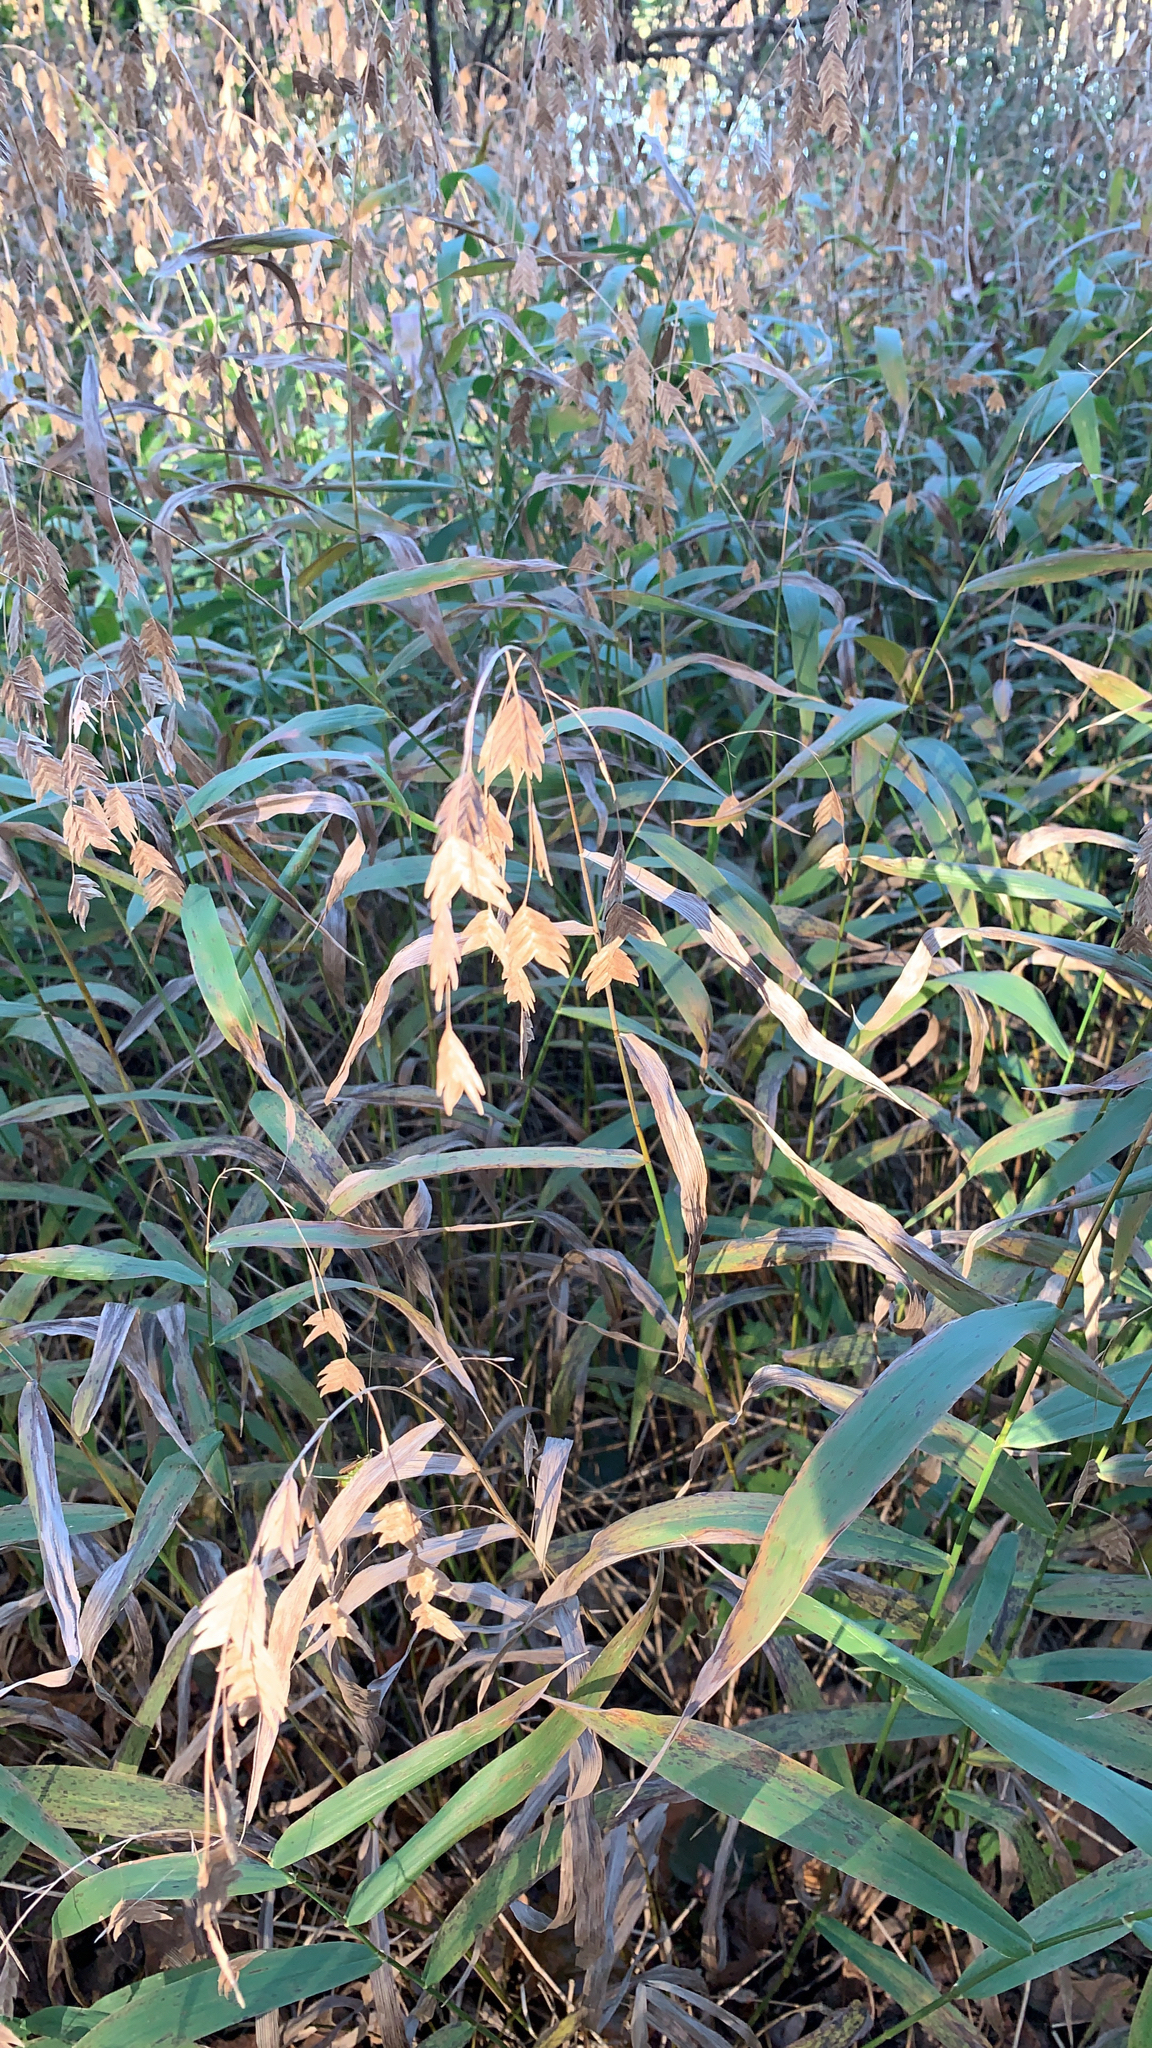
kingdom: Plantae
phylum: Tracheophyta
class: Liliopsida
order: Poales
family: Poaceae
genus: Chasmanthium
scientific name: Chasmanthium latifolium
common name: Broad-leaved chasmanthium
